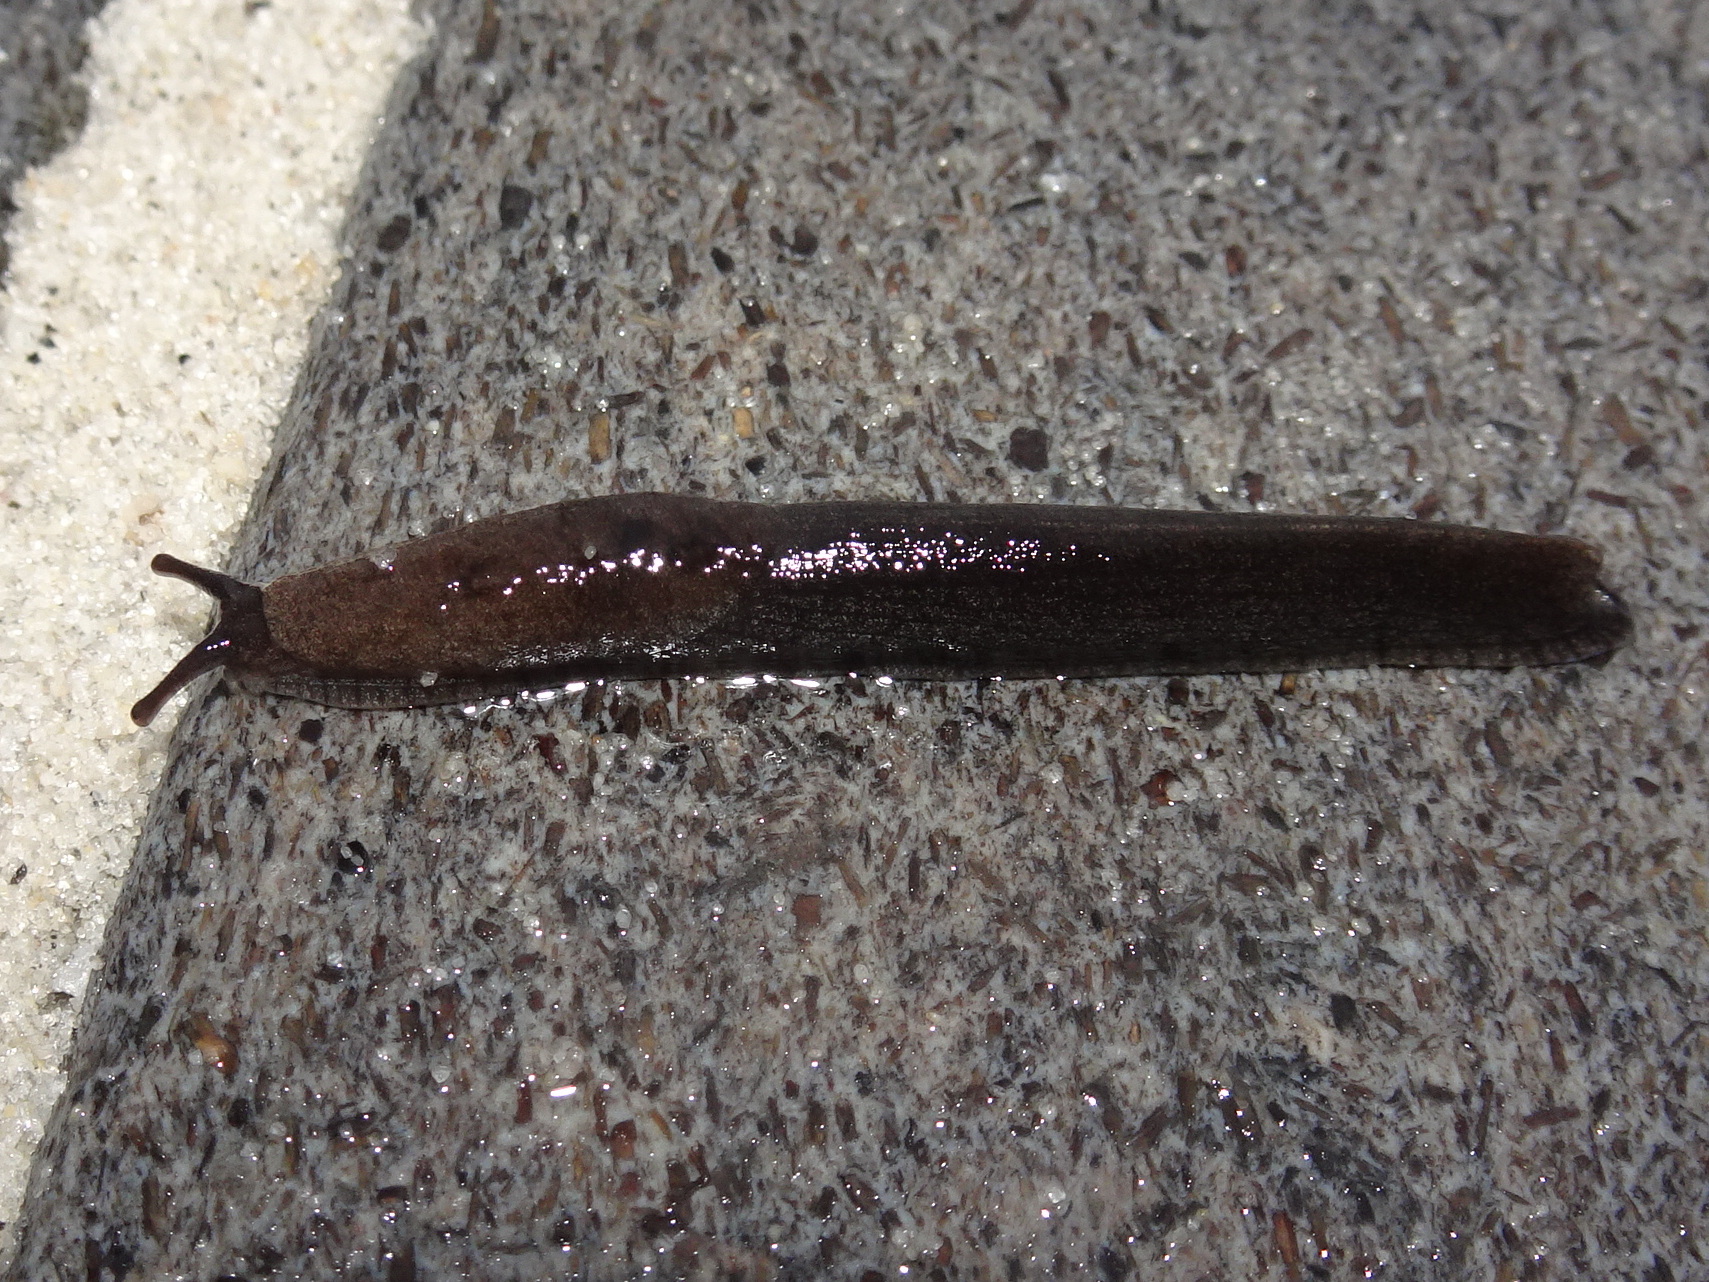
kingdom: Animalia
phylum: Mollusca
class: Gastropoda
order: Stylommatophora
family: Ariolimacidae
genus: Hesperarion
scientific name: Hesperarion niger
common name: Black western slug
